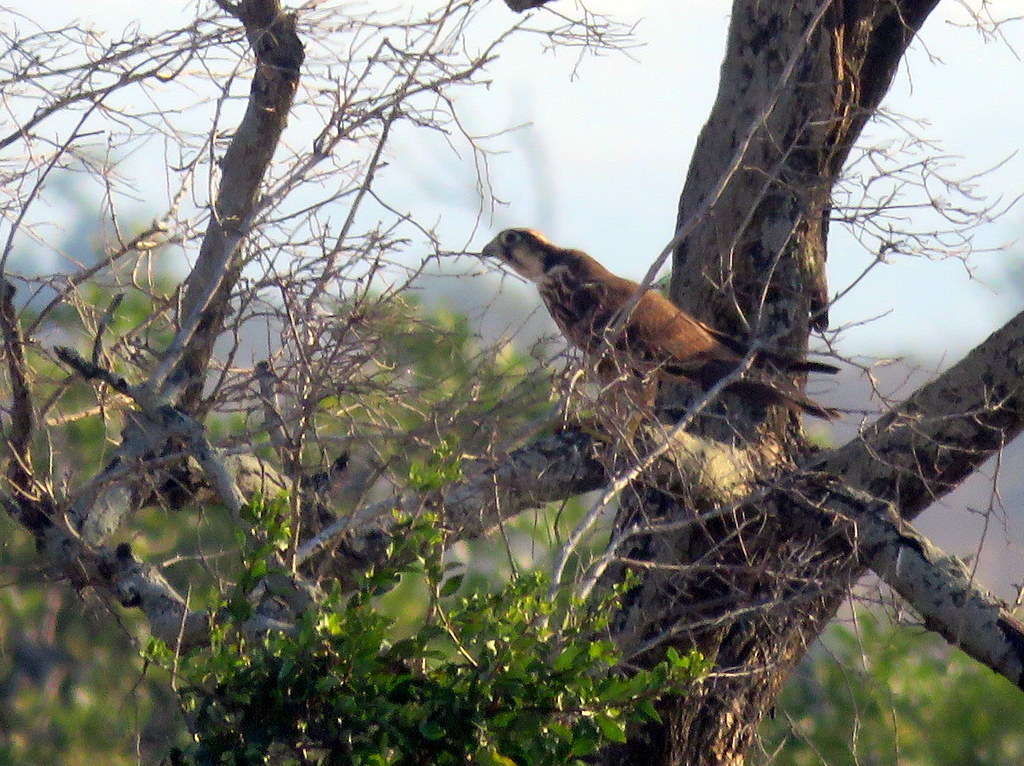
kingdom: Animalia
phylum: Chordata
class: Aves
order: Falconiformes
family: Falconidae
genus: Falco
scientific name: Falco biarmicus
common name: Lanner falcon
